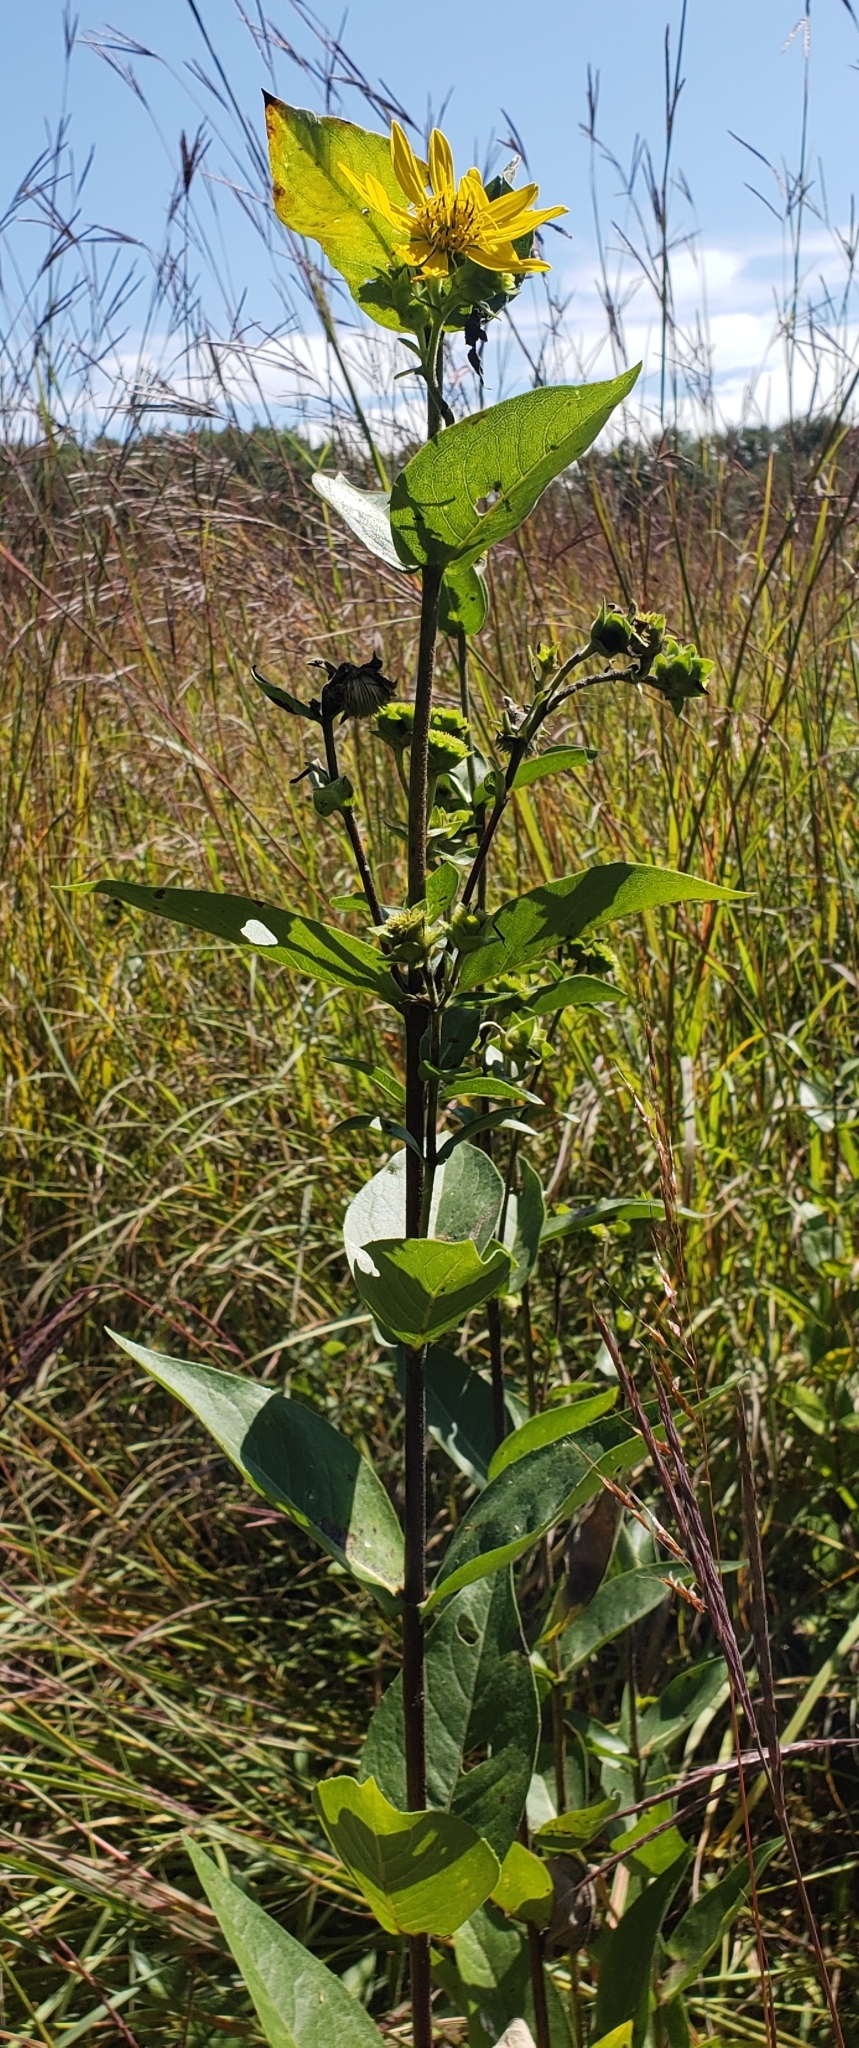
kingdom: Plantae
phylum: Tracheophyta
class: Magnoliopsida
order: Asterales
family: Asteraceae
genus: Silphium
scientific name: Silphium integrifolium
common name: Whole-leaf rosinweed
